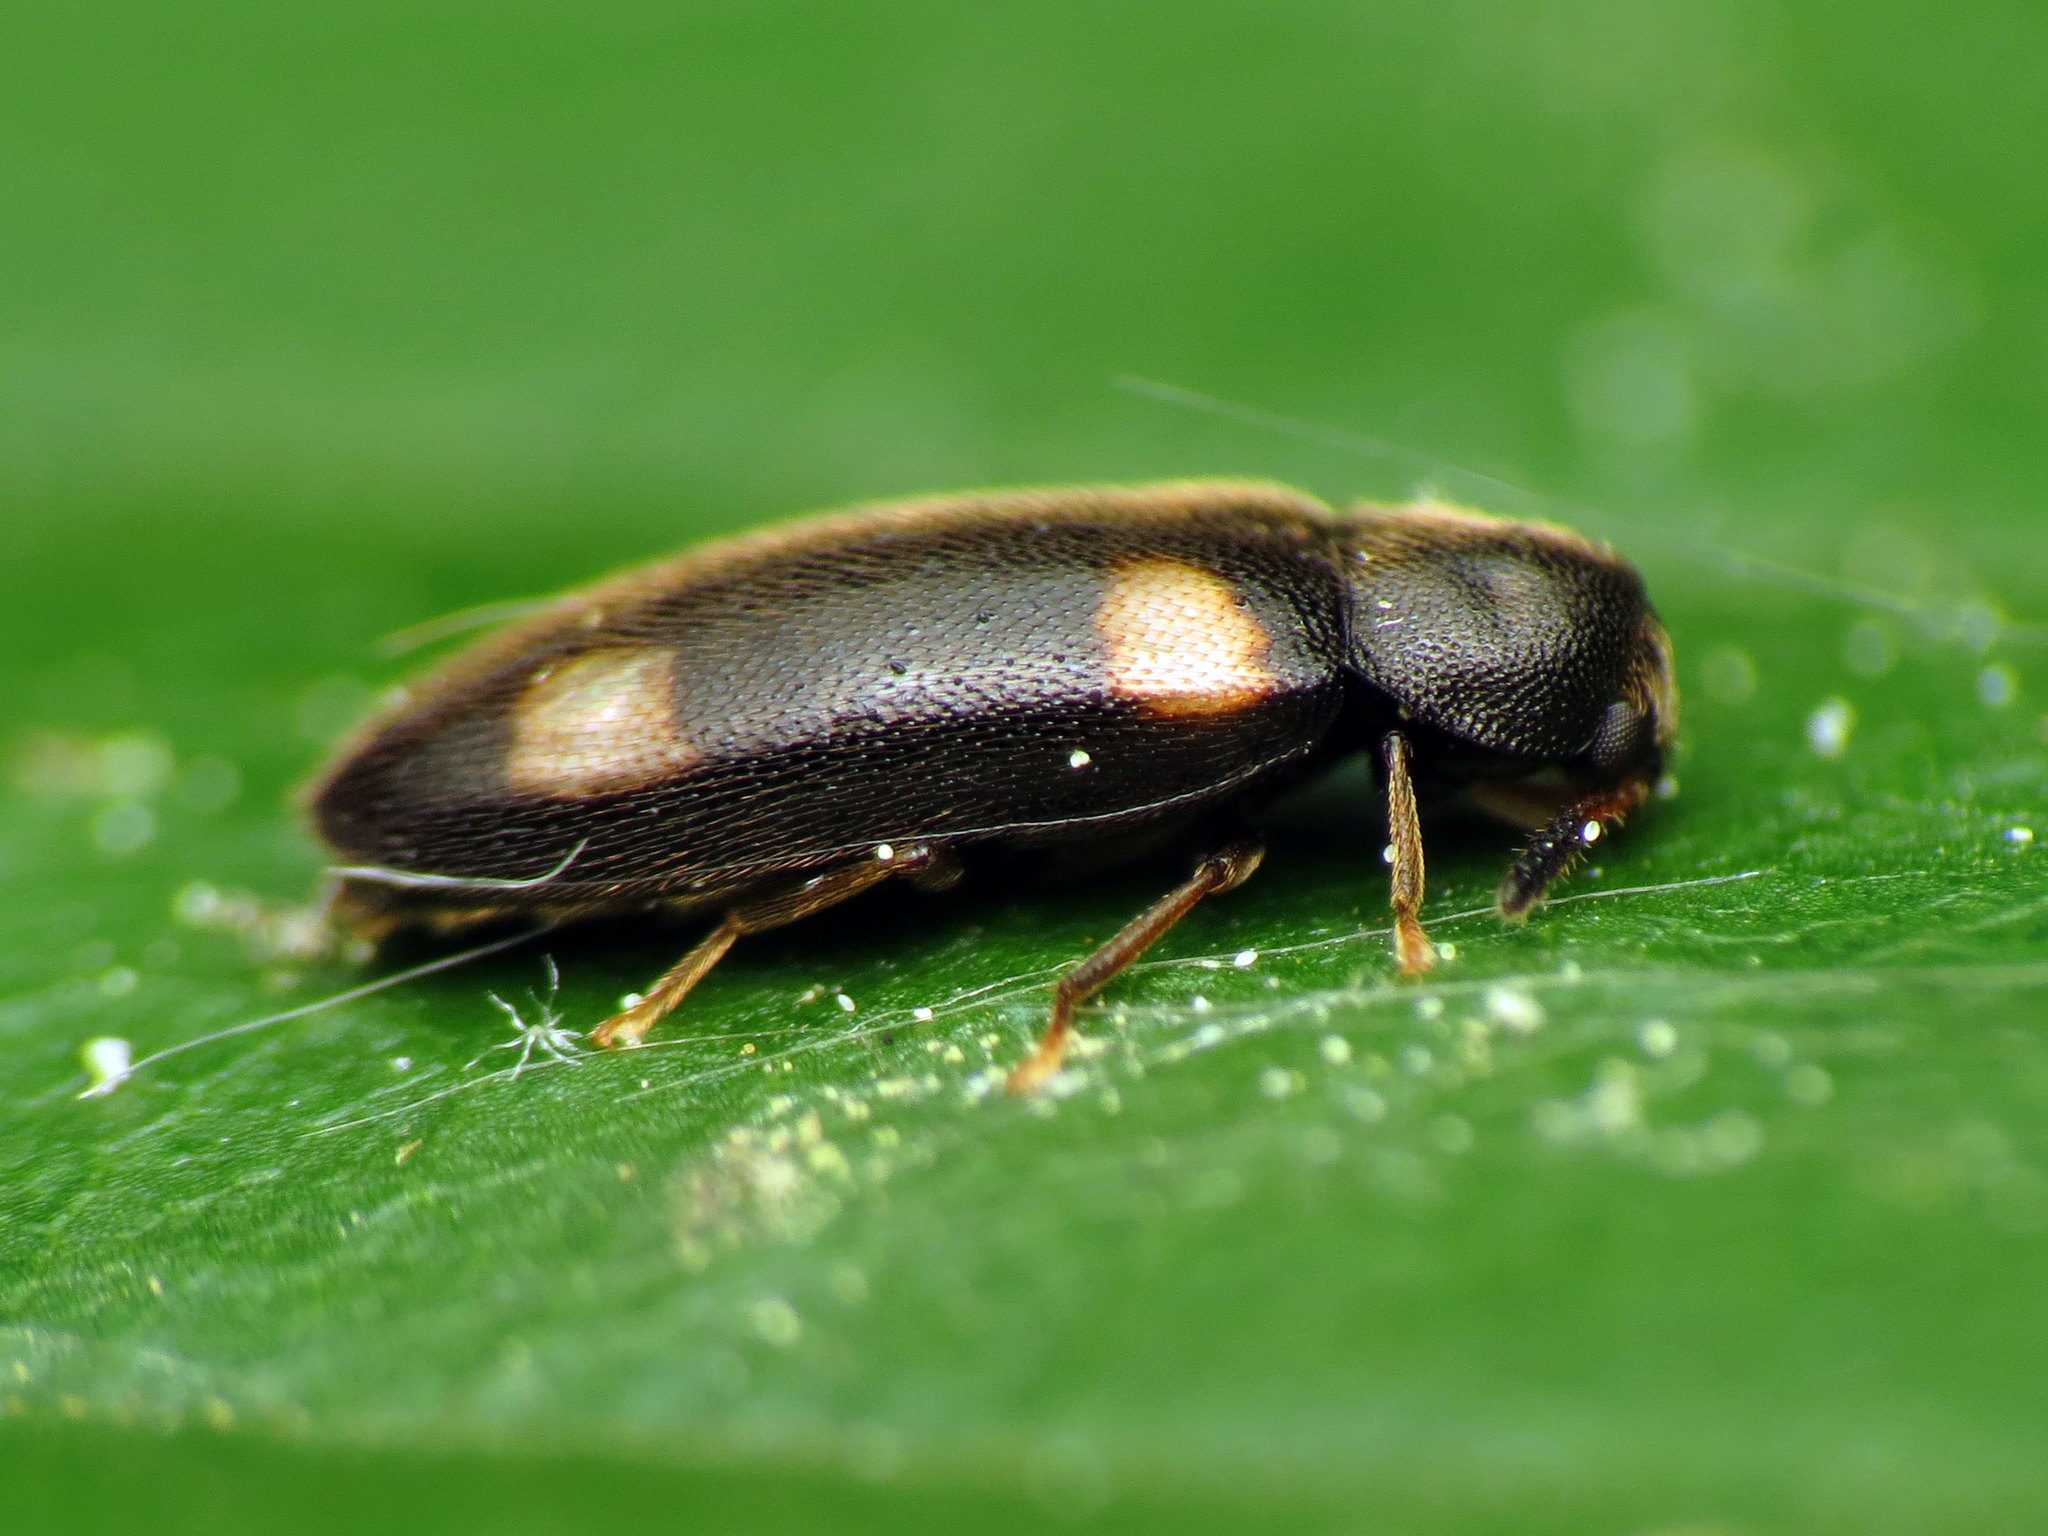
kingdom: Animalia
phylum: Arthropoda
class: Insecta
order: Coleoptera
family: Melandryidae
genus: Spilotus
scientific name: Spilotus quadripustulatus
